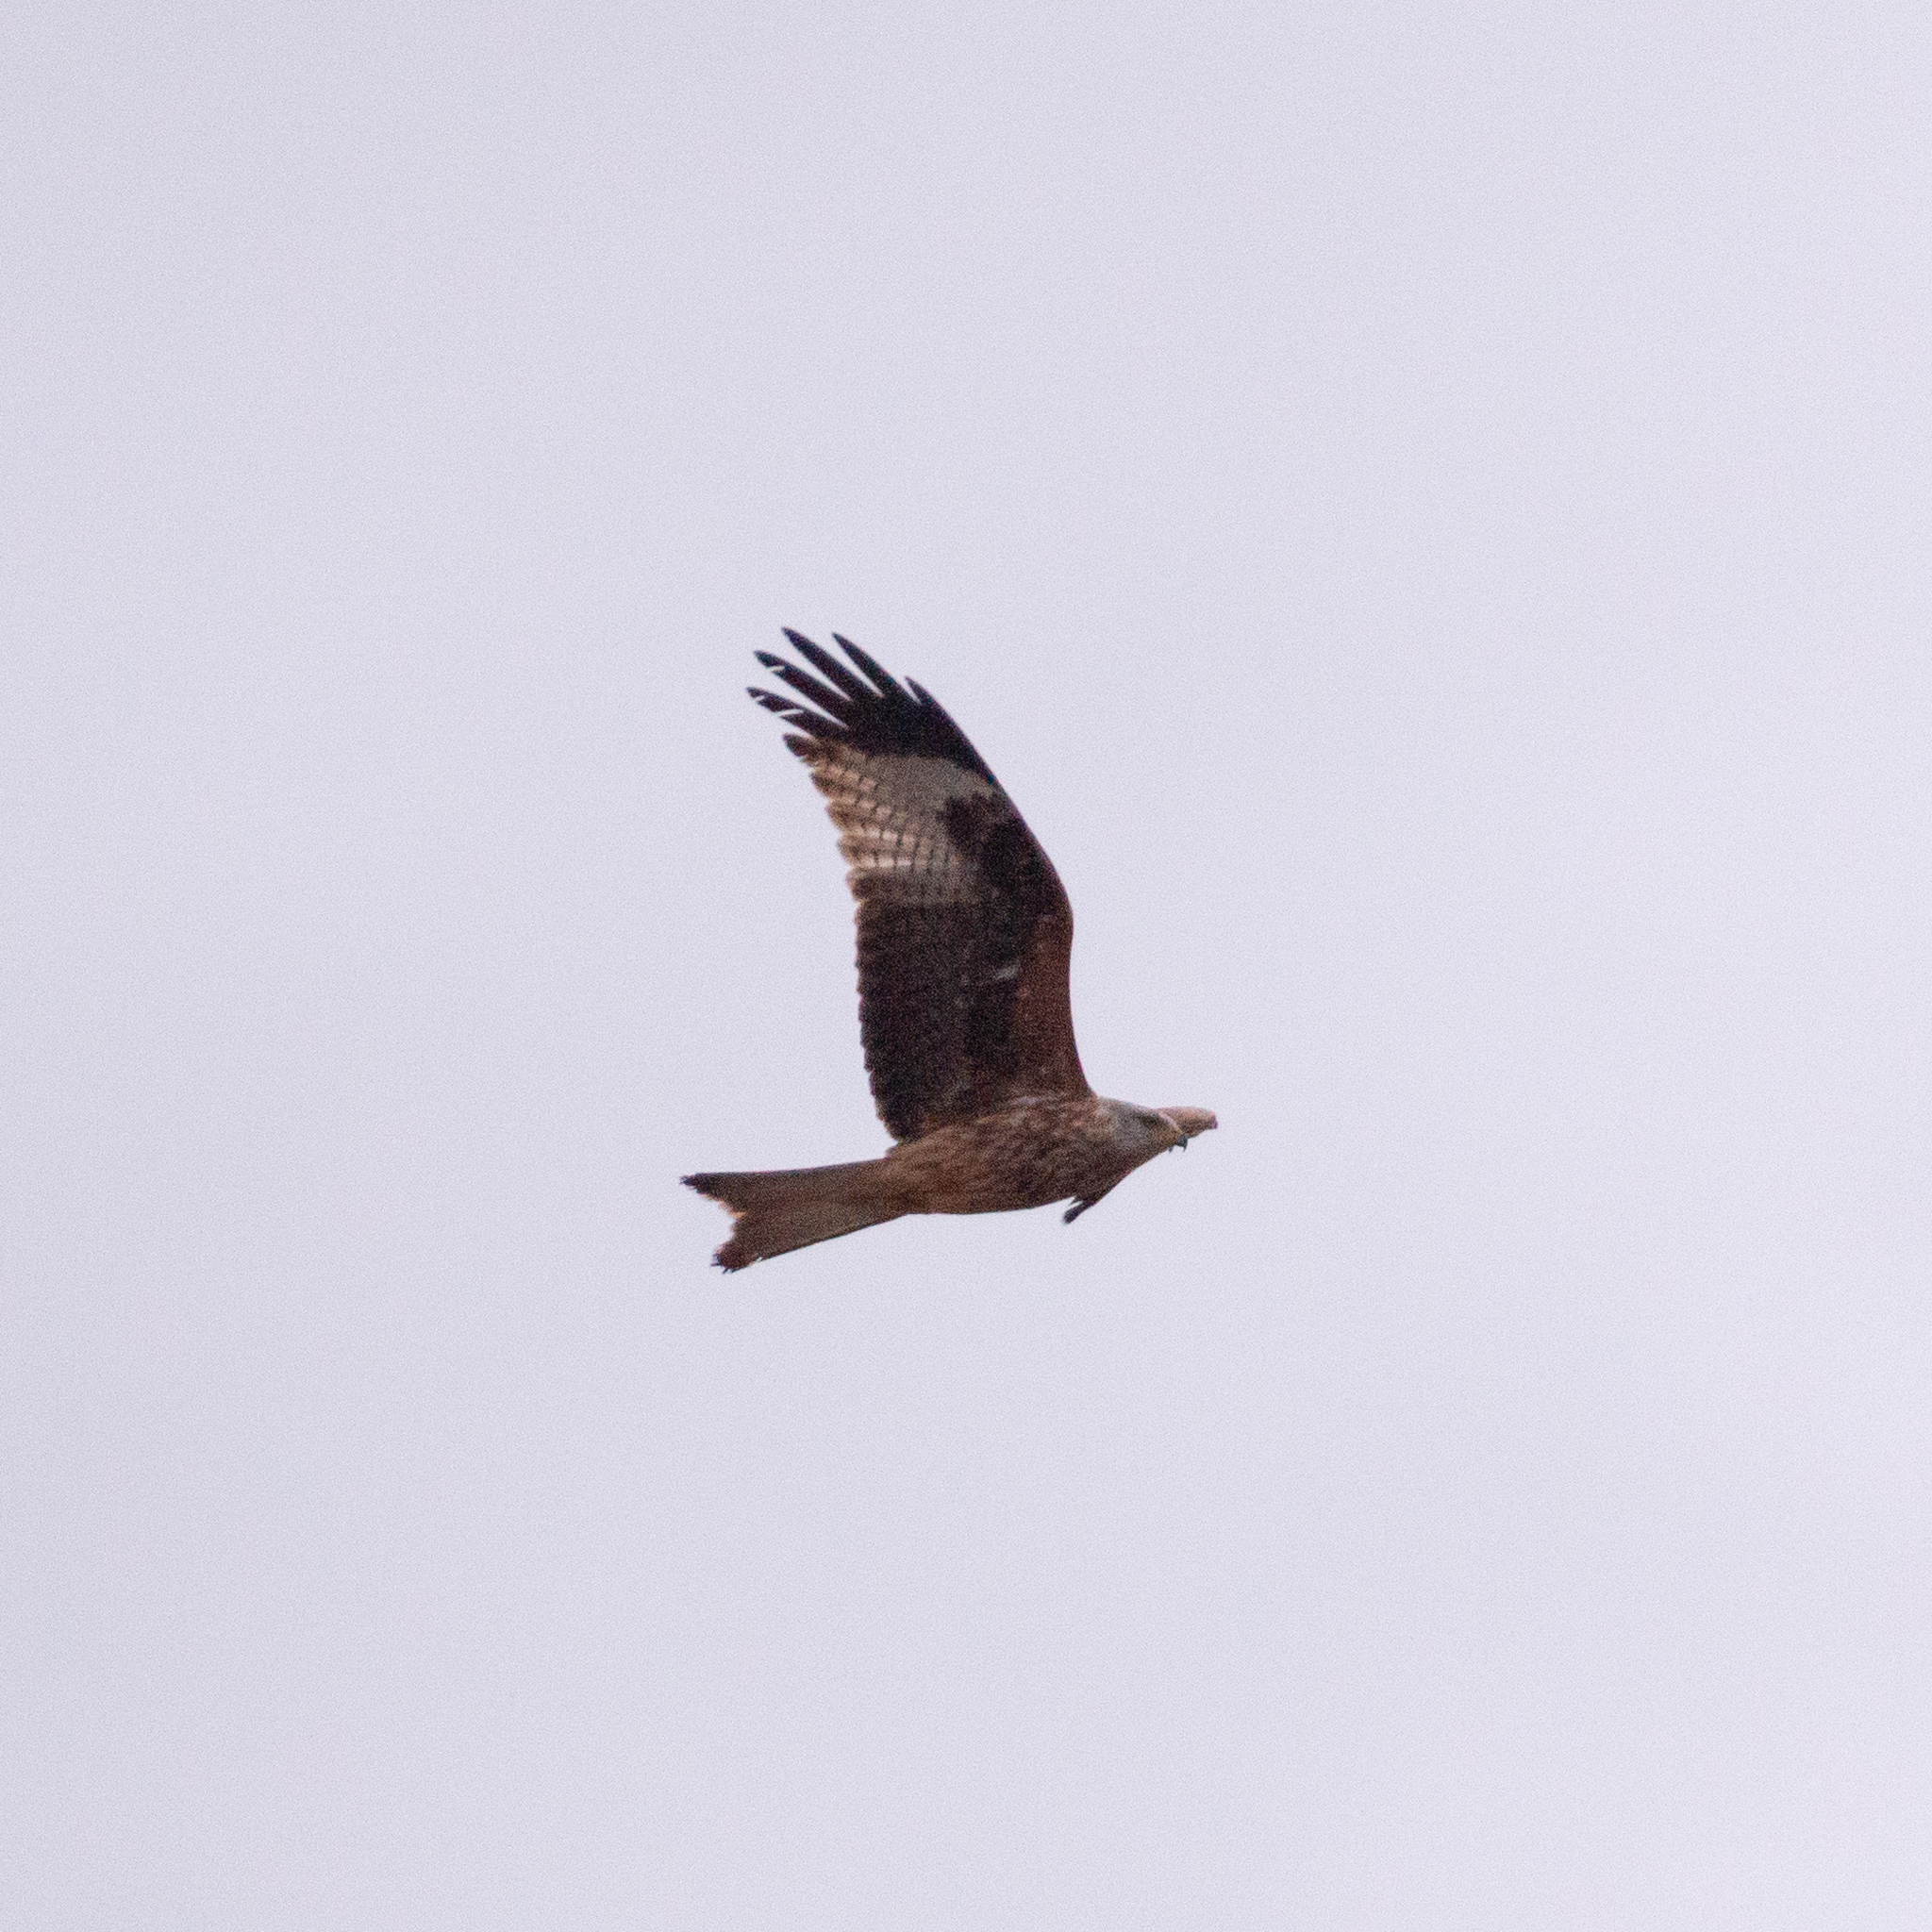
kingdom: Animalia
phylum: Chordata
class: Aves
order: Accipitriformes
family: Accipitridae
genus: Milvus
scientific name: Milvus milvus
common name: Red kite
